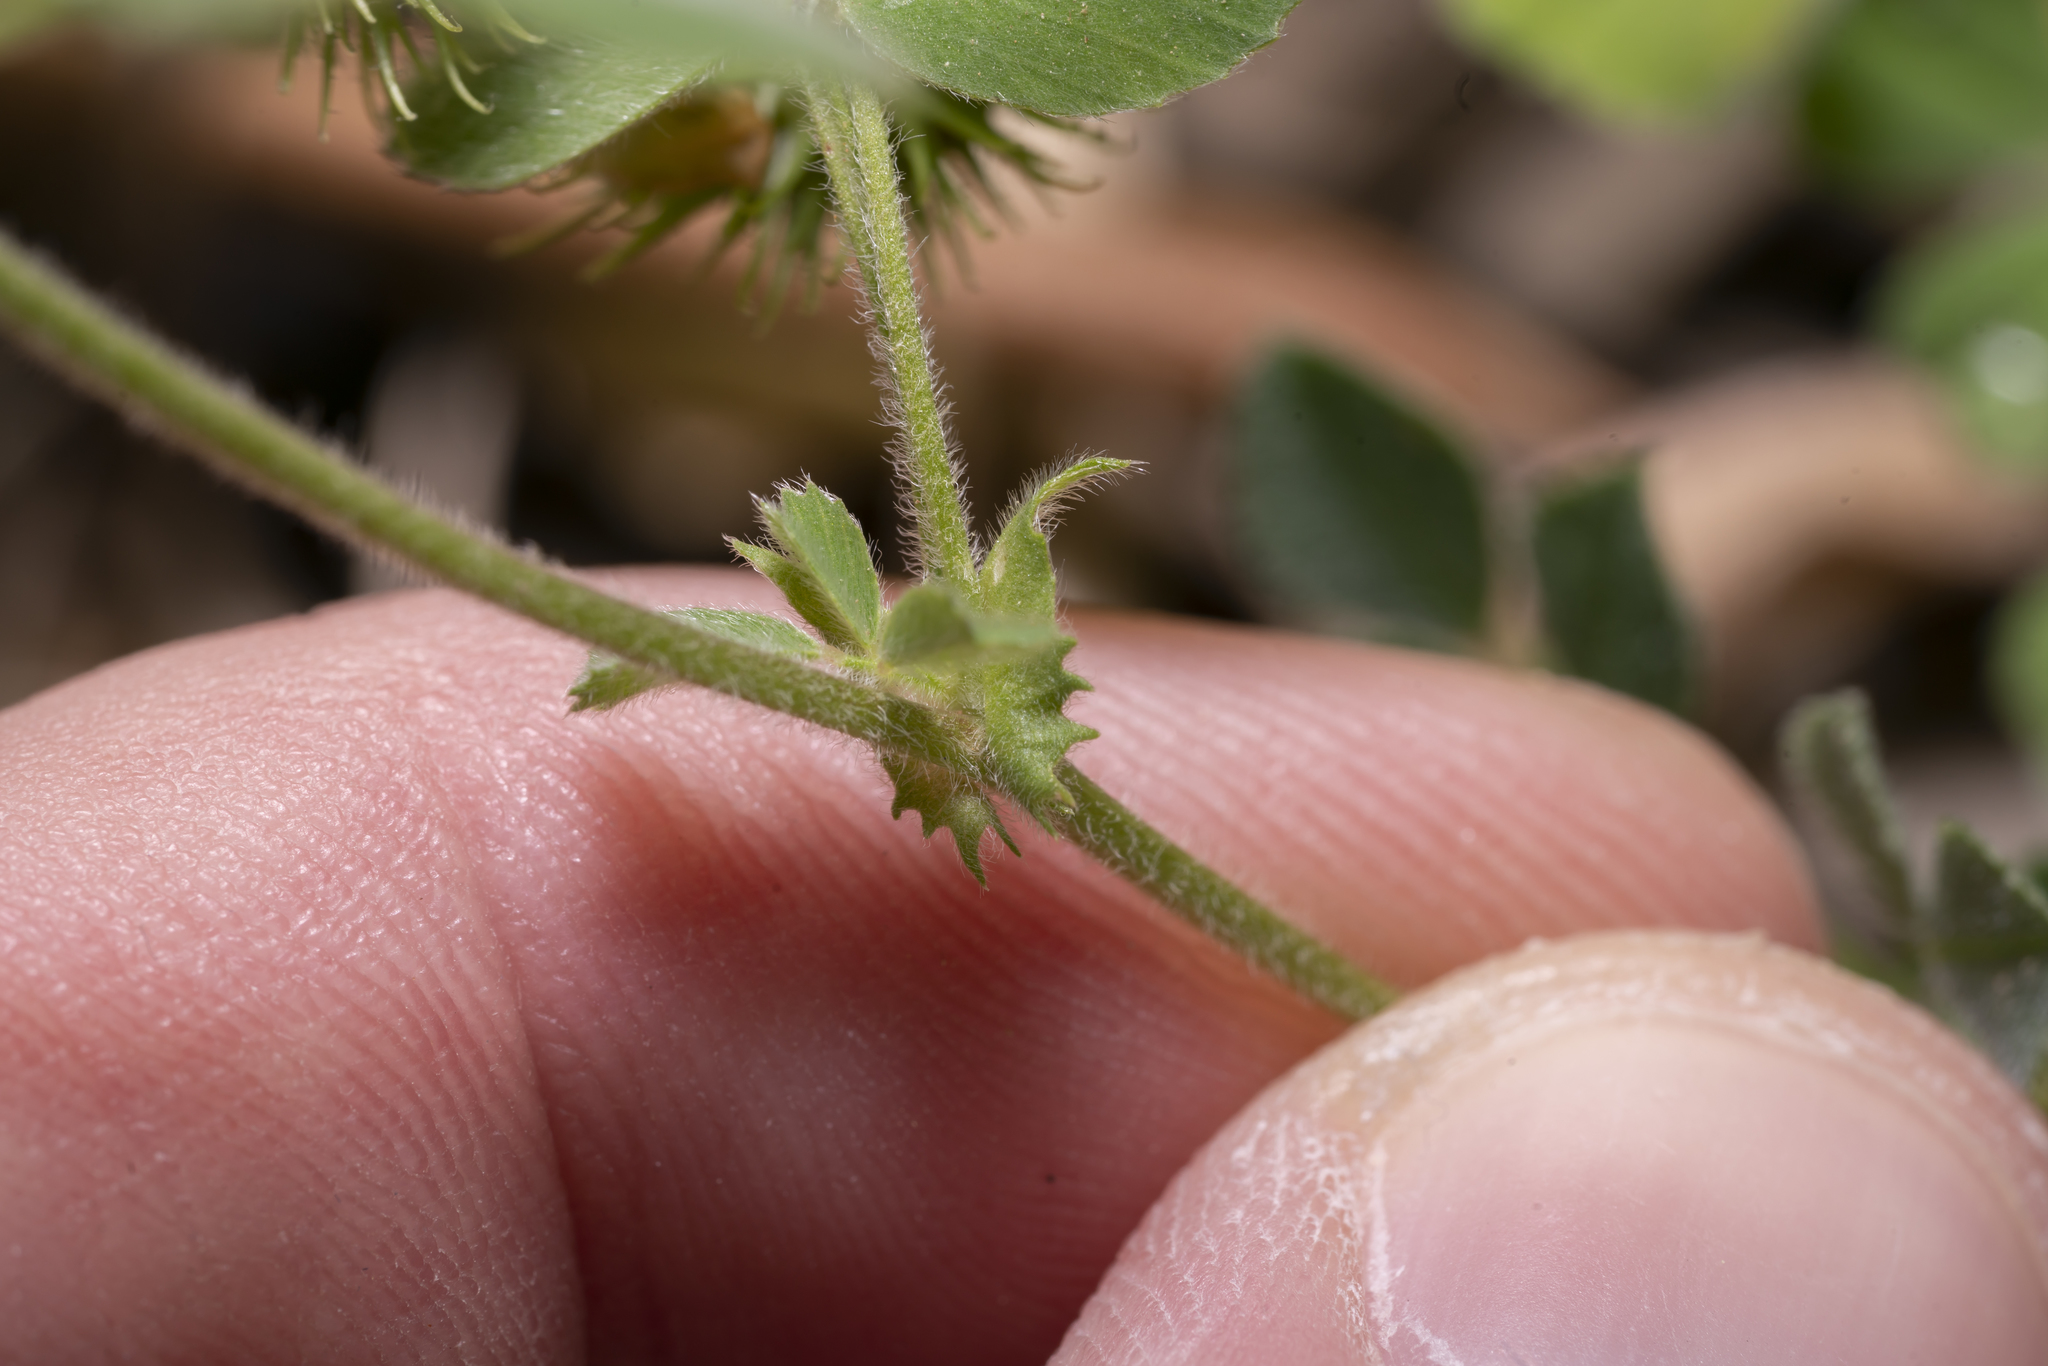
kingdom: Plantae
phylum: Tracheophyta
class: Magnoliopsida
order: Fabales
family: Fabaceae
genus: Medicago
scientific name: Medicago disciformis
